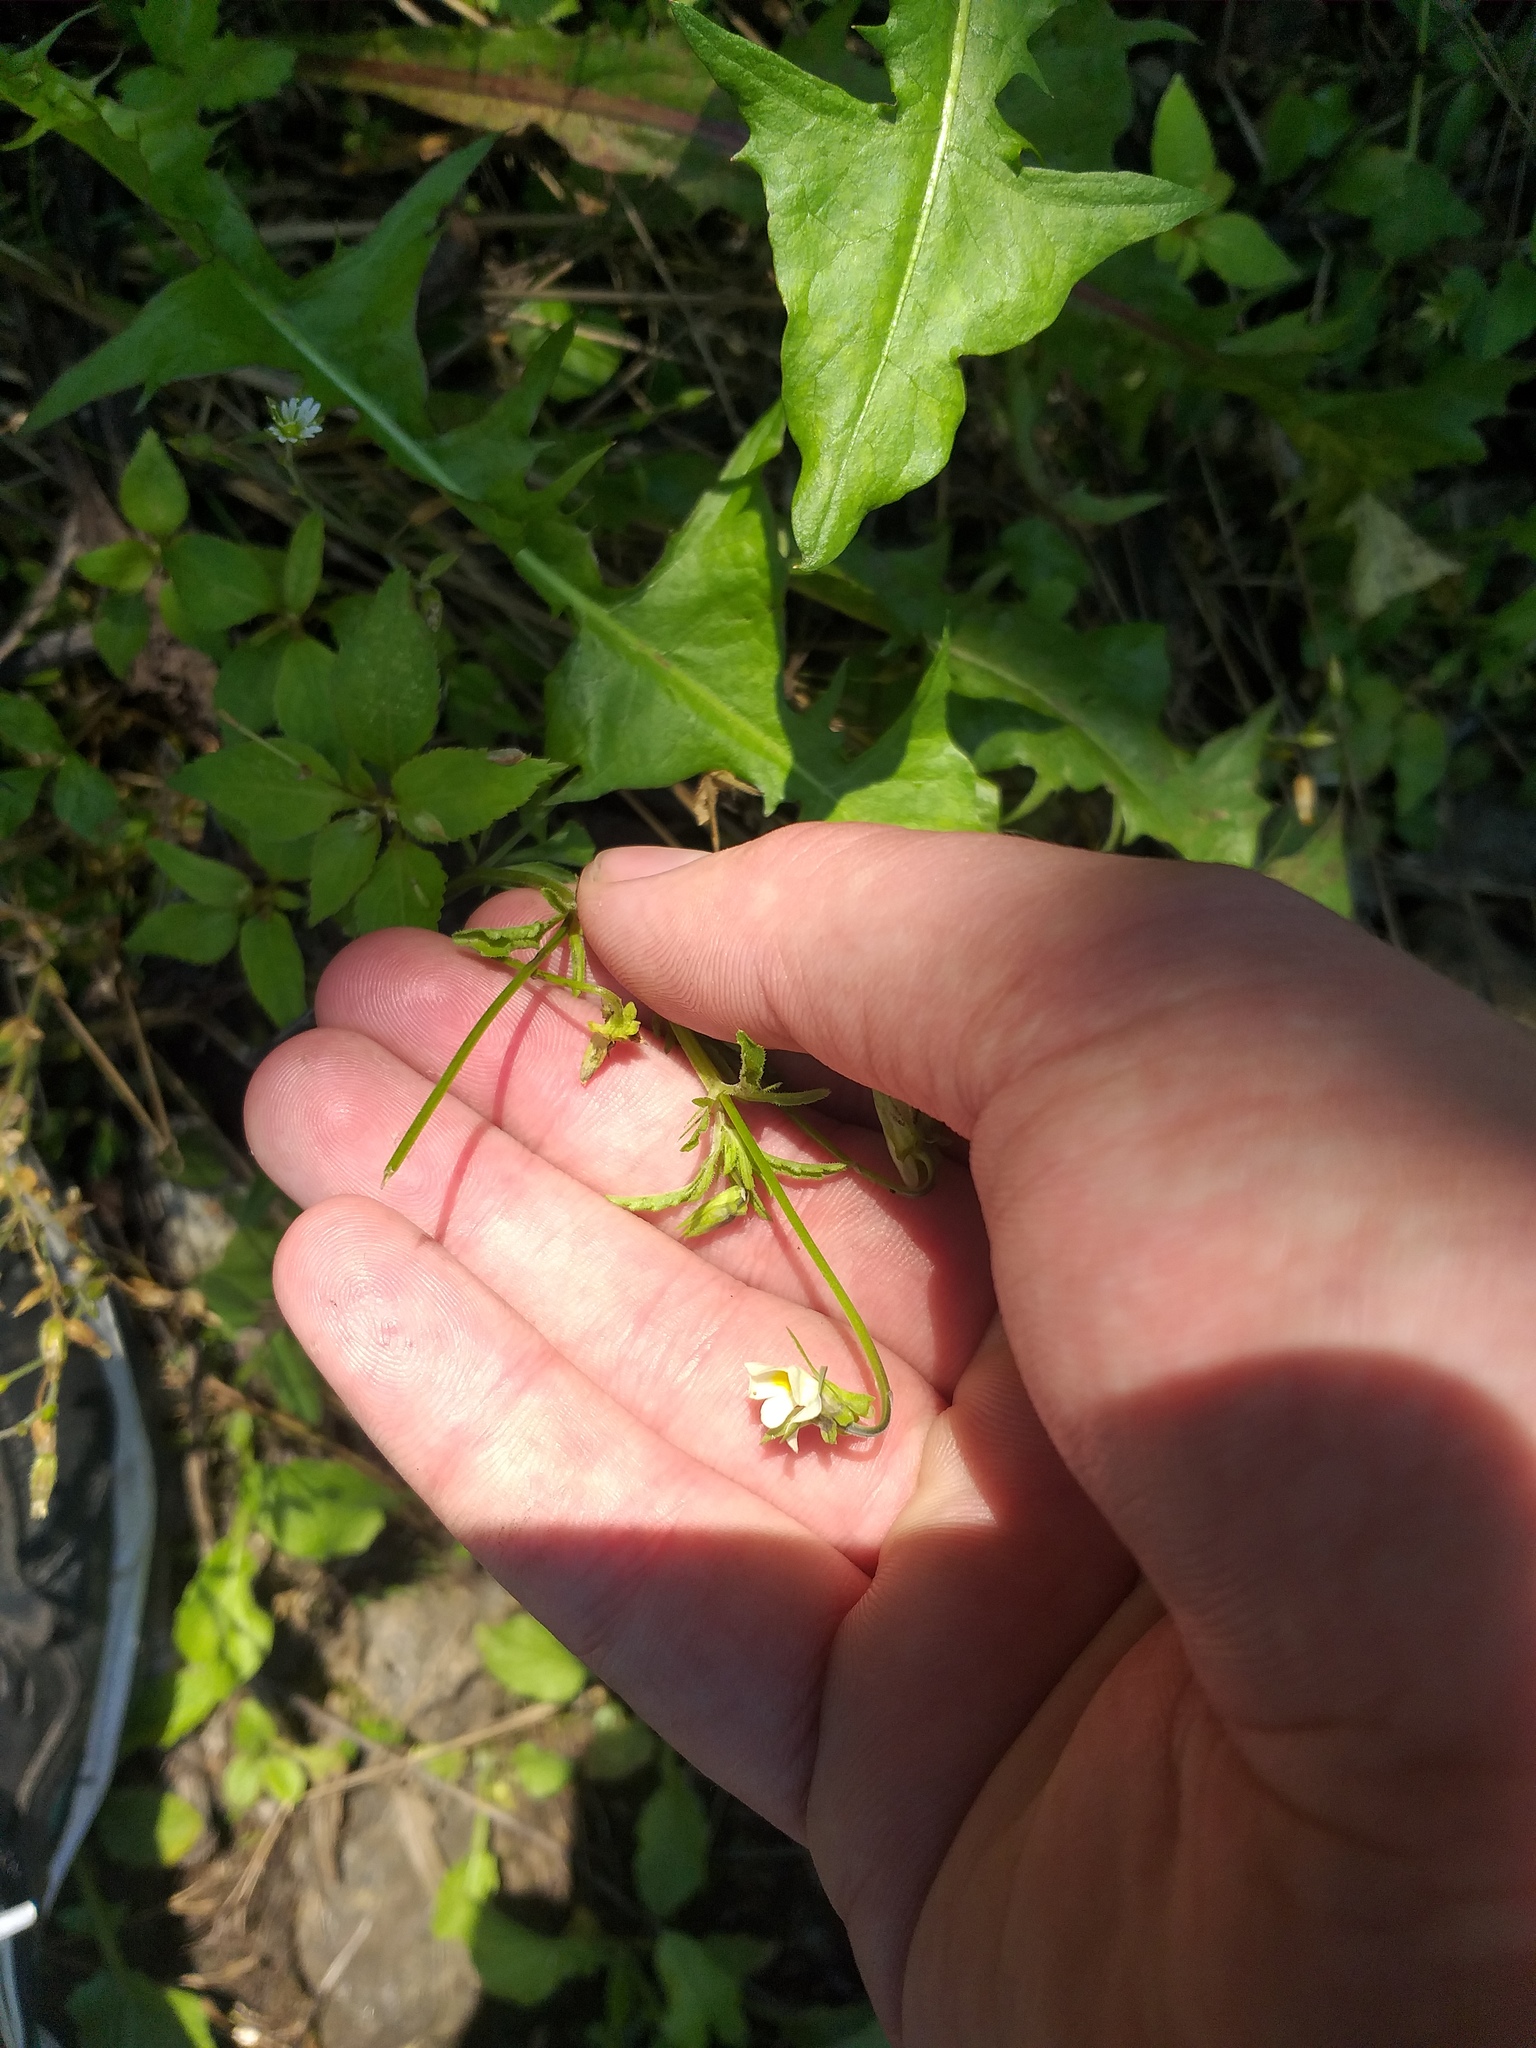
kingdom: Plantae
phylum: Tracheophyta
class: Magnoliopsida
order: Malpighiales
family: Violaceae
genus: Viola
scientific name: Viola arvensis
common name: Field pansy
